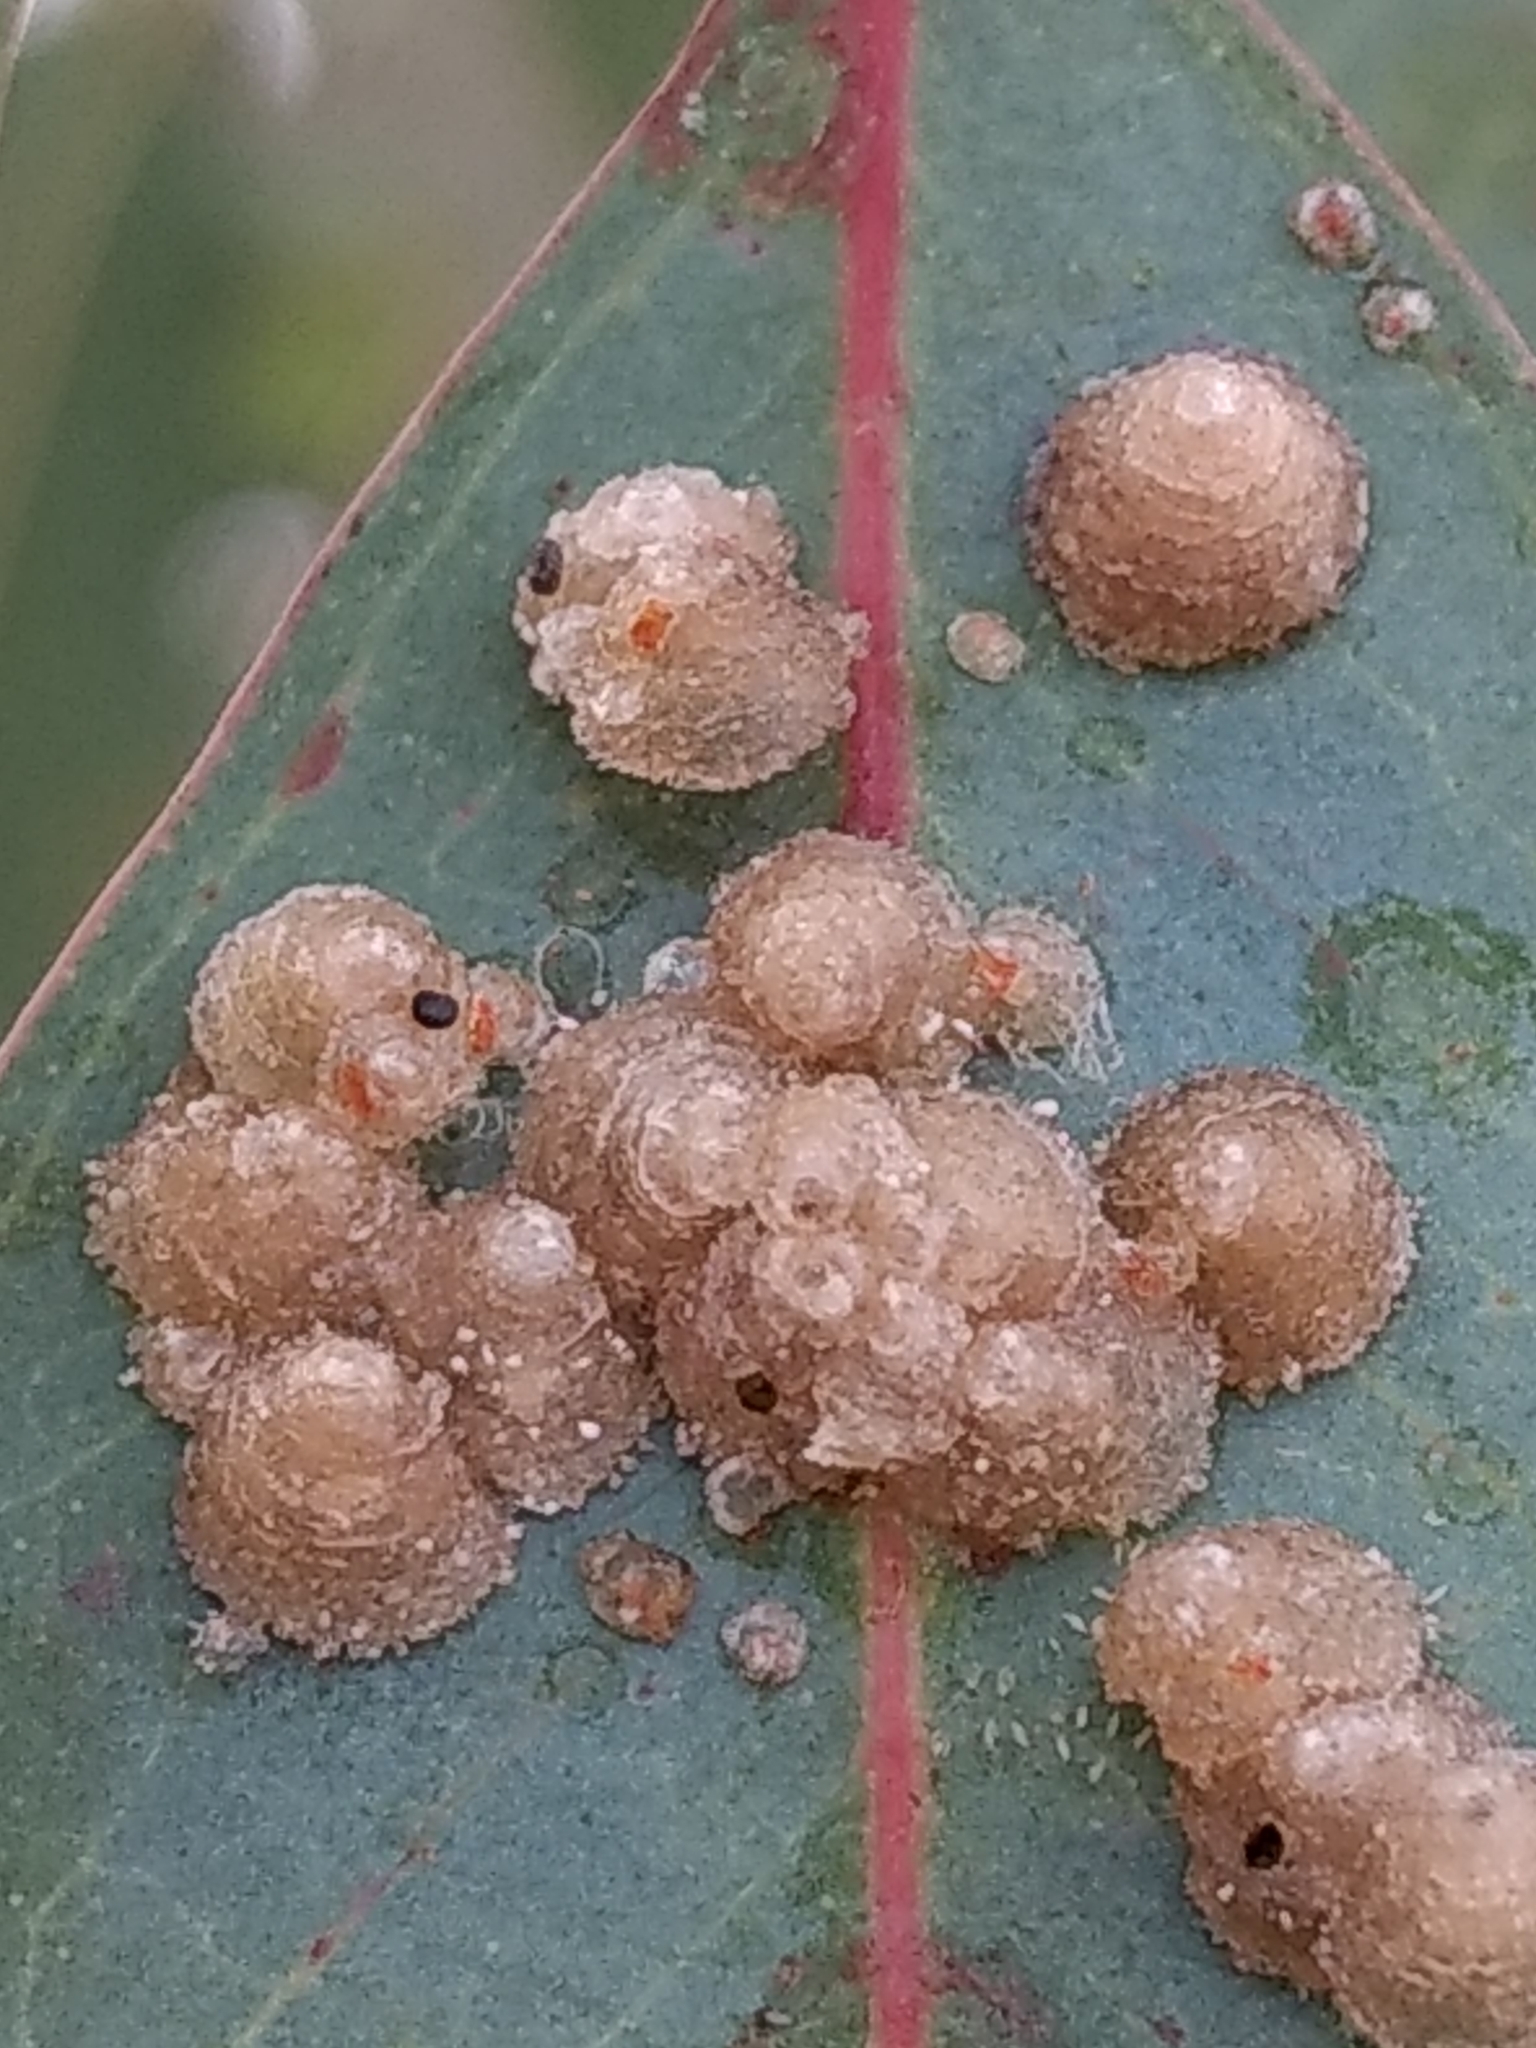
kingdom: Animalia
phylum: Arthropoda
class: Insecta
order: Hemiptera
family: Aphalaridae
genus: Glycaspis
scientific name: Glycaspis brimblecombei
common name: Red gum lerp psyllid
